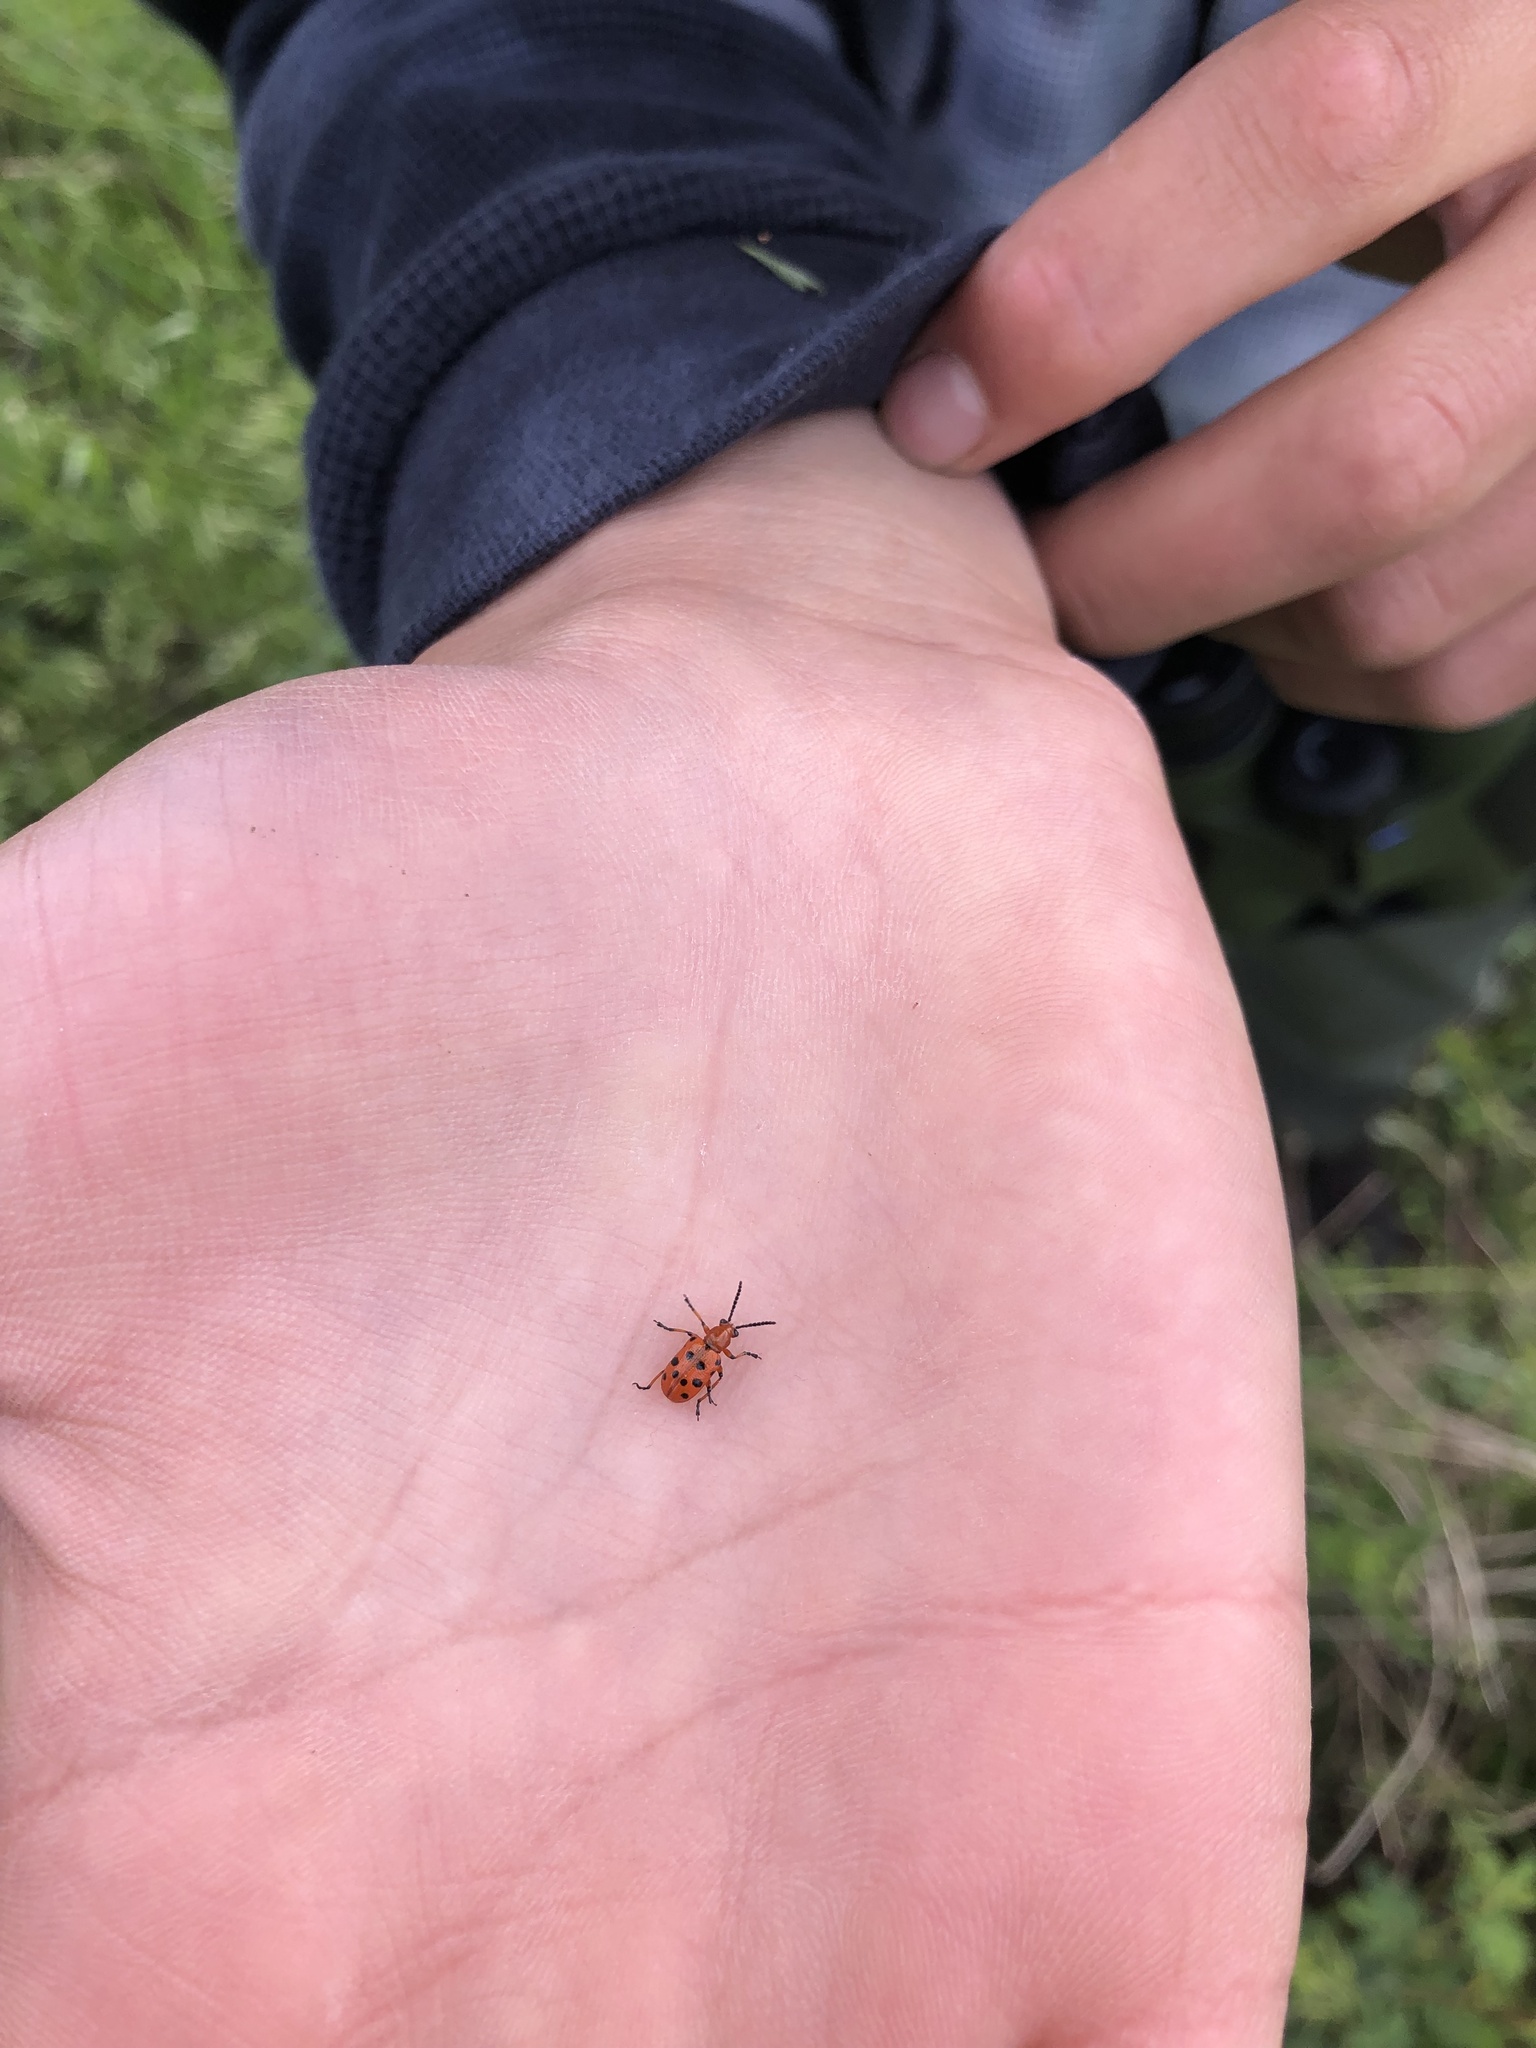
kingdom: Animalia
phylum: Arthropoda
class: Insecta
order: Coleoptera
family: Chrysomelidae
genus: Crioceris
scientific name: Crioceris duodecimpunctata
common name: Twelve-spotted asparagus beetle
